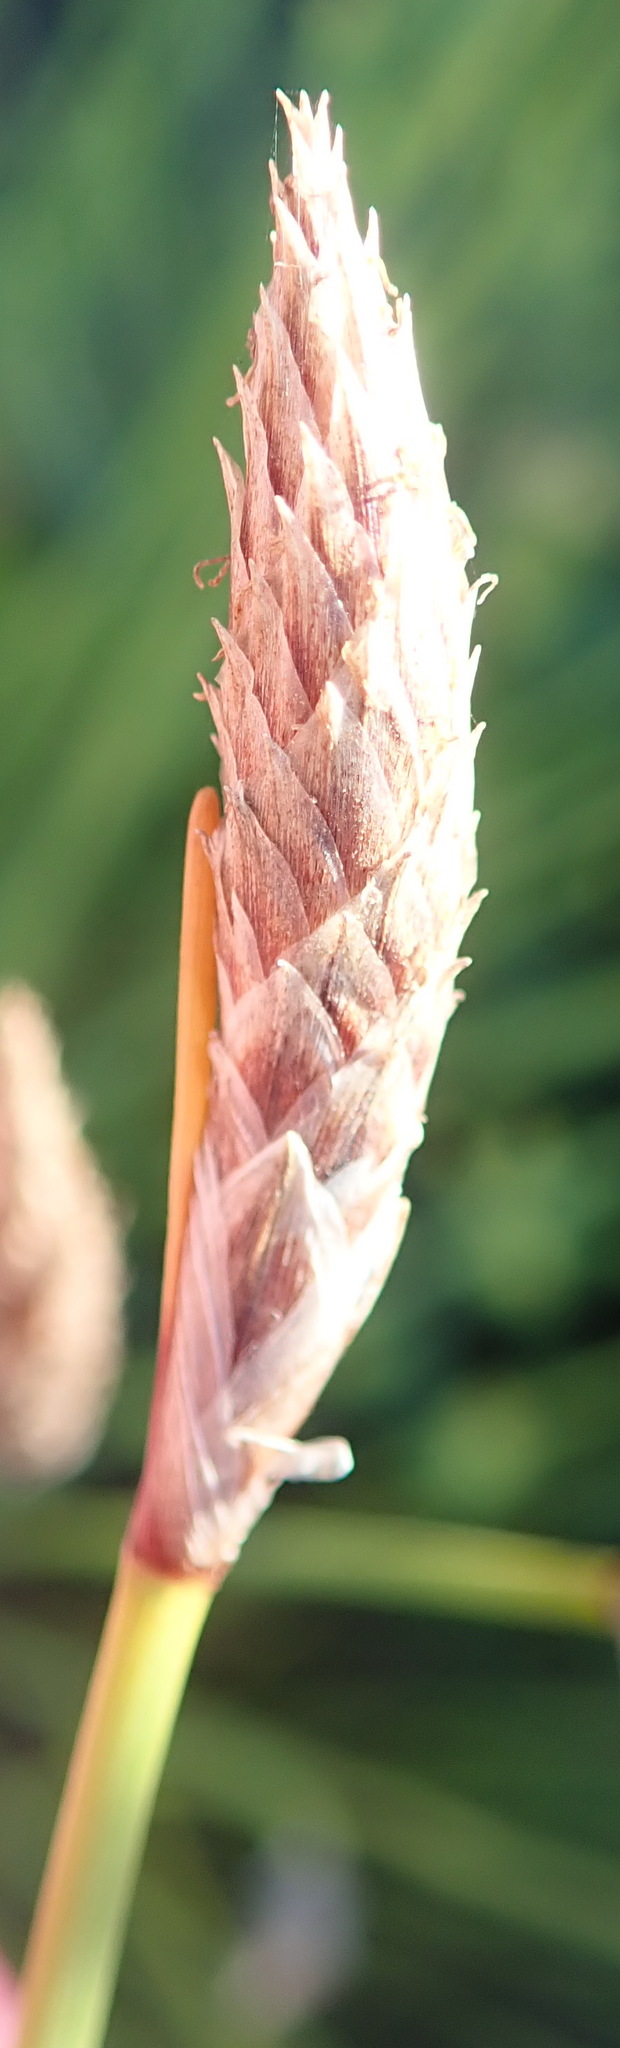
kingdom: Plantae
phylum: Tracheophyta
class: Liliopsida
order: Poales
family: Cyperaceae
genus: Ficinia
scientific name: Ficinia deusta
